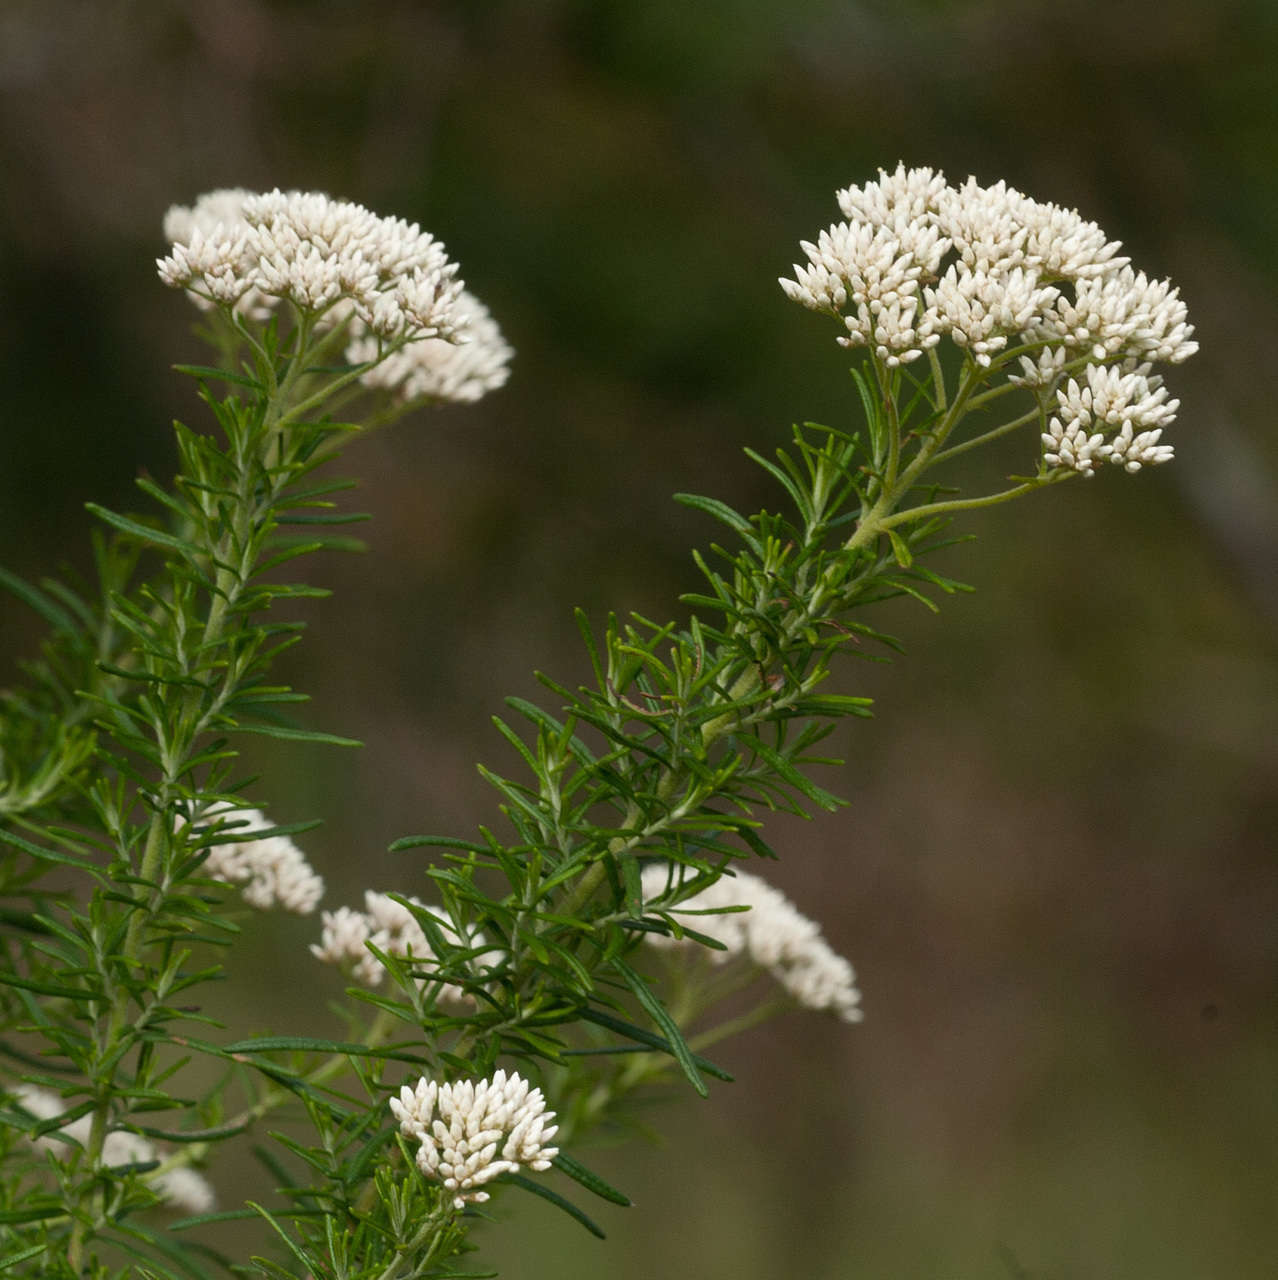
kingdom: Plantae
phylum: Tracheophyta
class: Magnoliopsida
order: Asterales
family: Asteraceae
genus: Cassinia
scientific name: Cassinia aculeata
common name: Australian tauhinu
